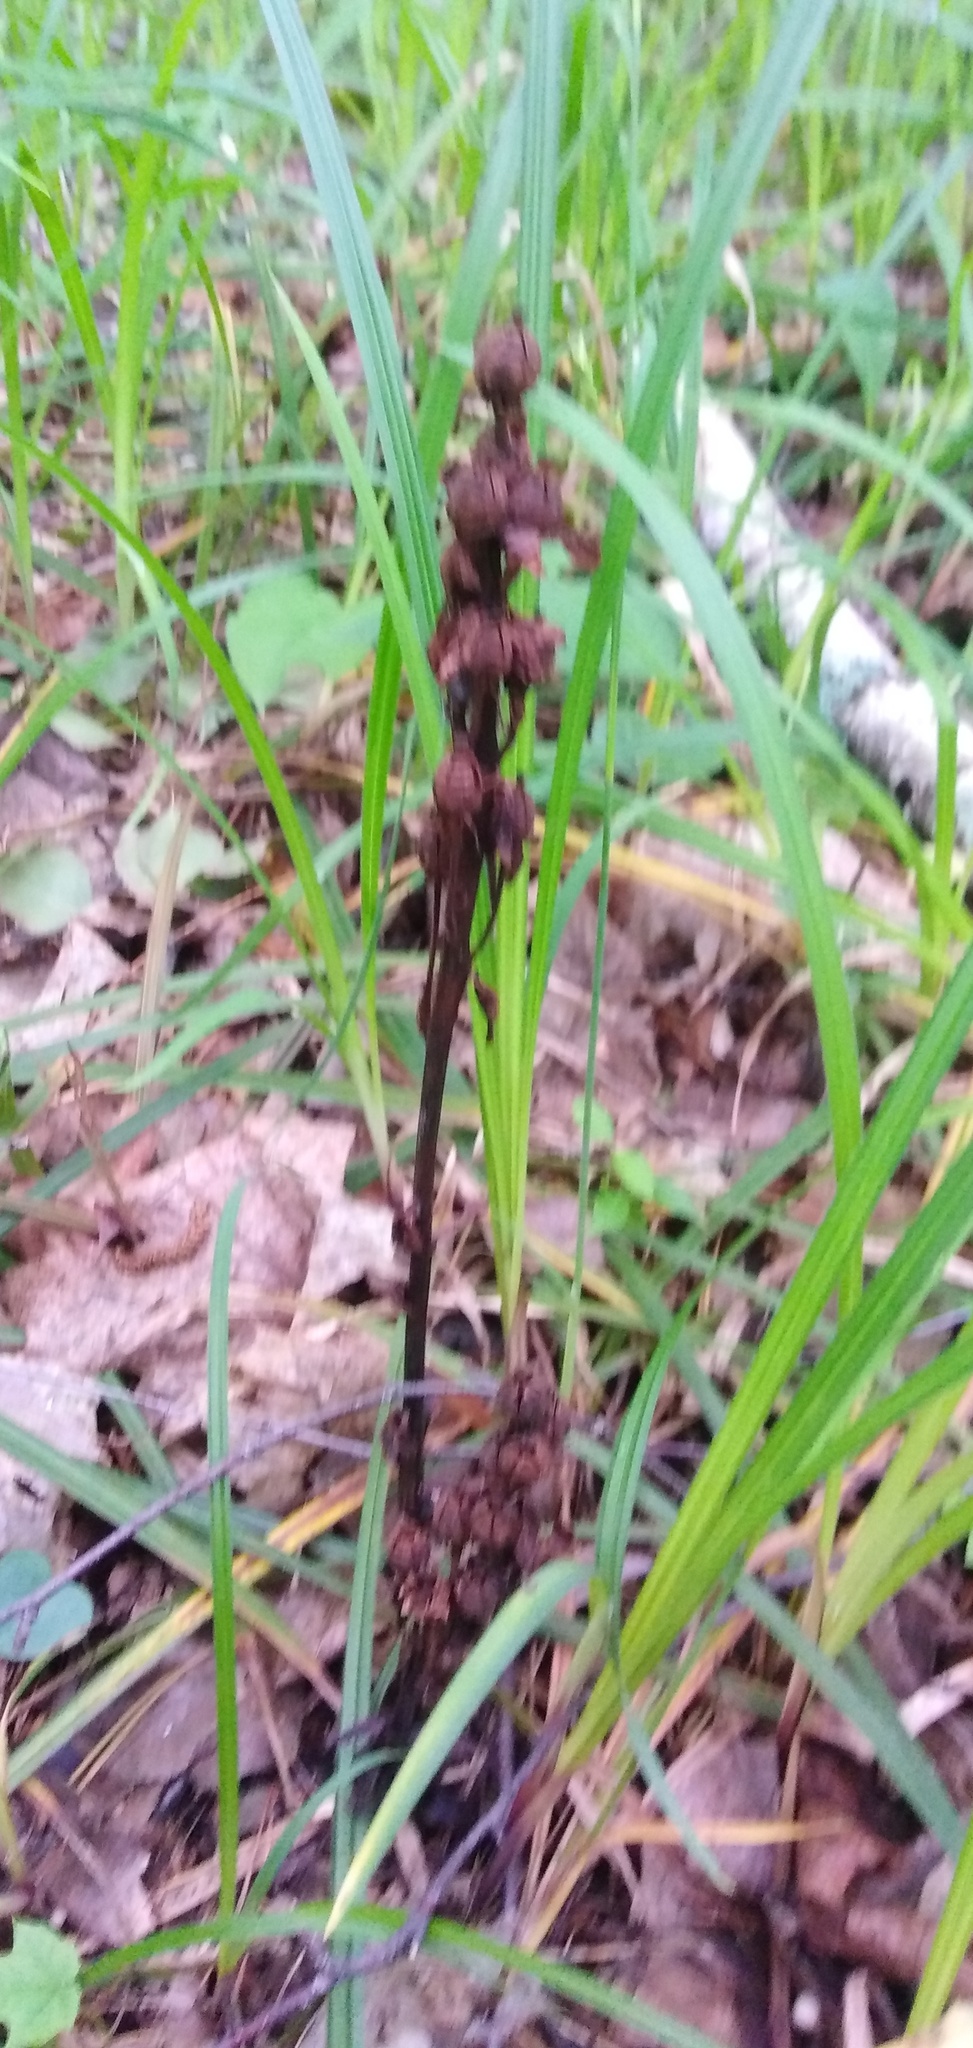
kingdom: Plantae
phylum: Tracheophyta
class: Magnoliopsida
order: Ericales
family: Ericaceae
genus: Hypopitys
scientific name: Hypopitys monotropa
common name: Yellow bird's-nest
